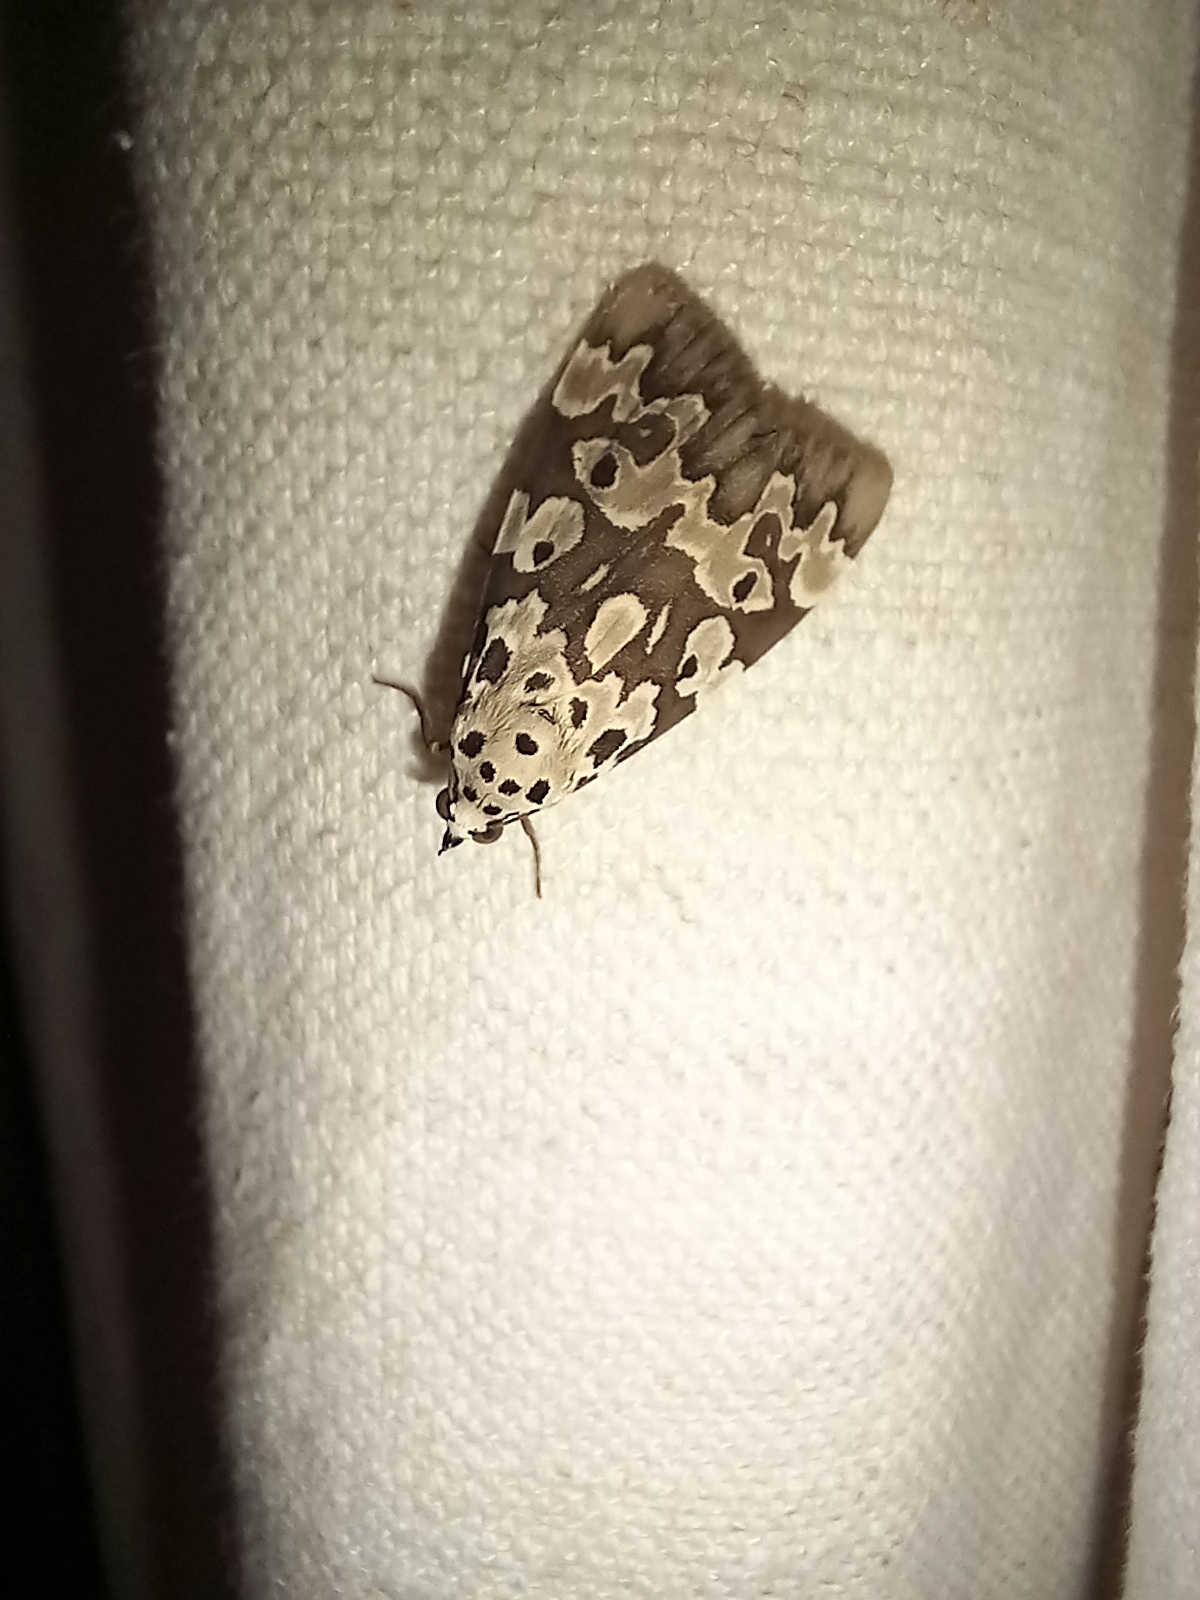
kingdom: Animalia
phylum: Arthropoda
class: Insecta
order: Lepidoptera
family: Erebidae
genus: Digama
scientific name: Digama Sommeria culta
